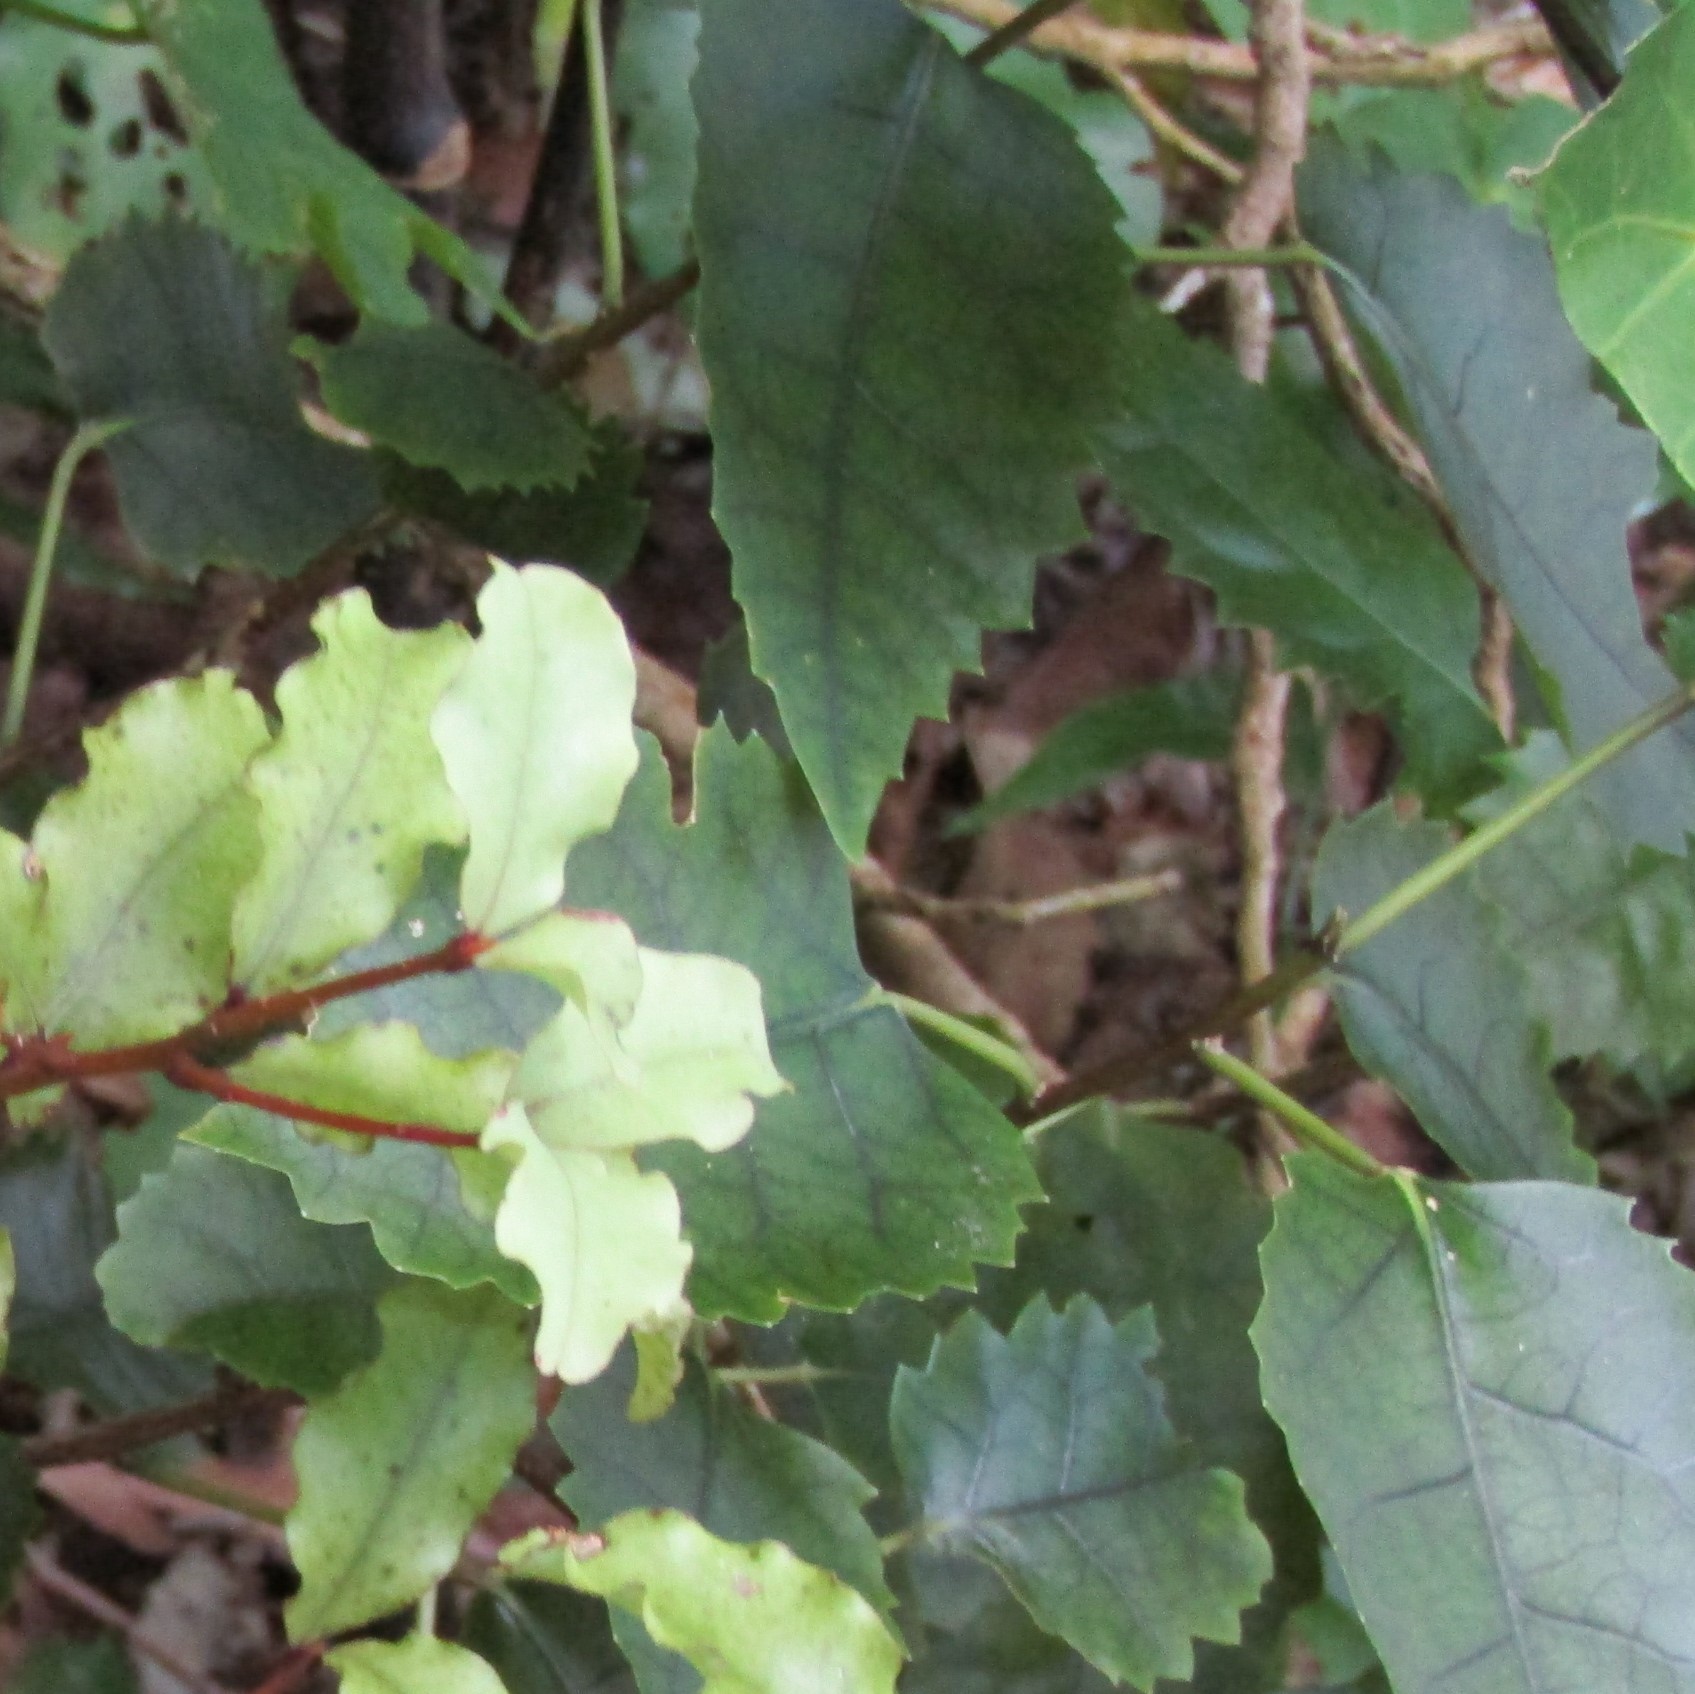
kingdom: Plantae
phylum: Tracheophyta
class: Magnoliopsida
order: Malvales
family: Malvaceae
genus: Hoheria
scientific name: Hoheria populnea
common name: Lacebark
